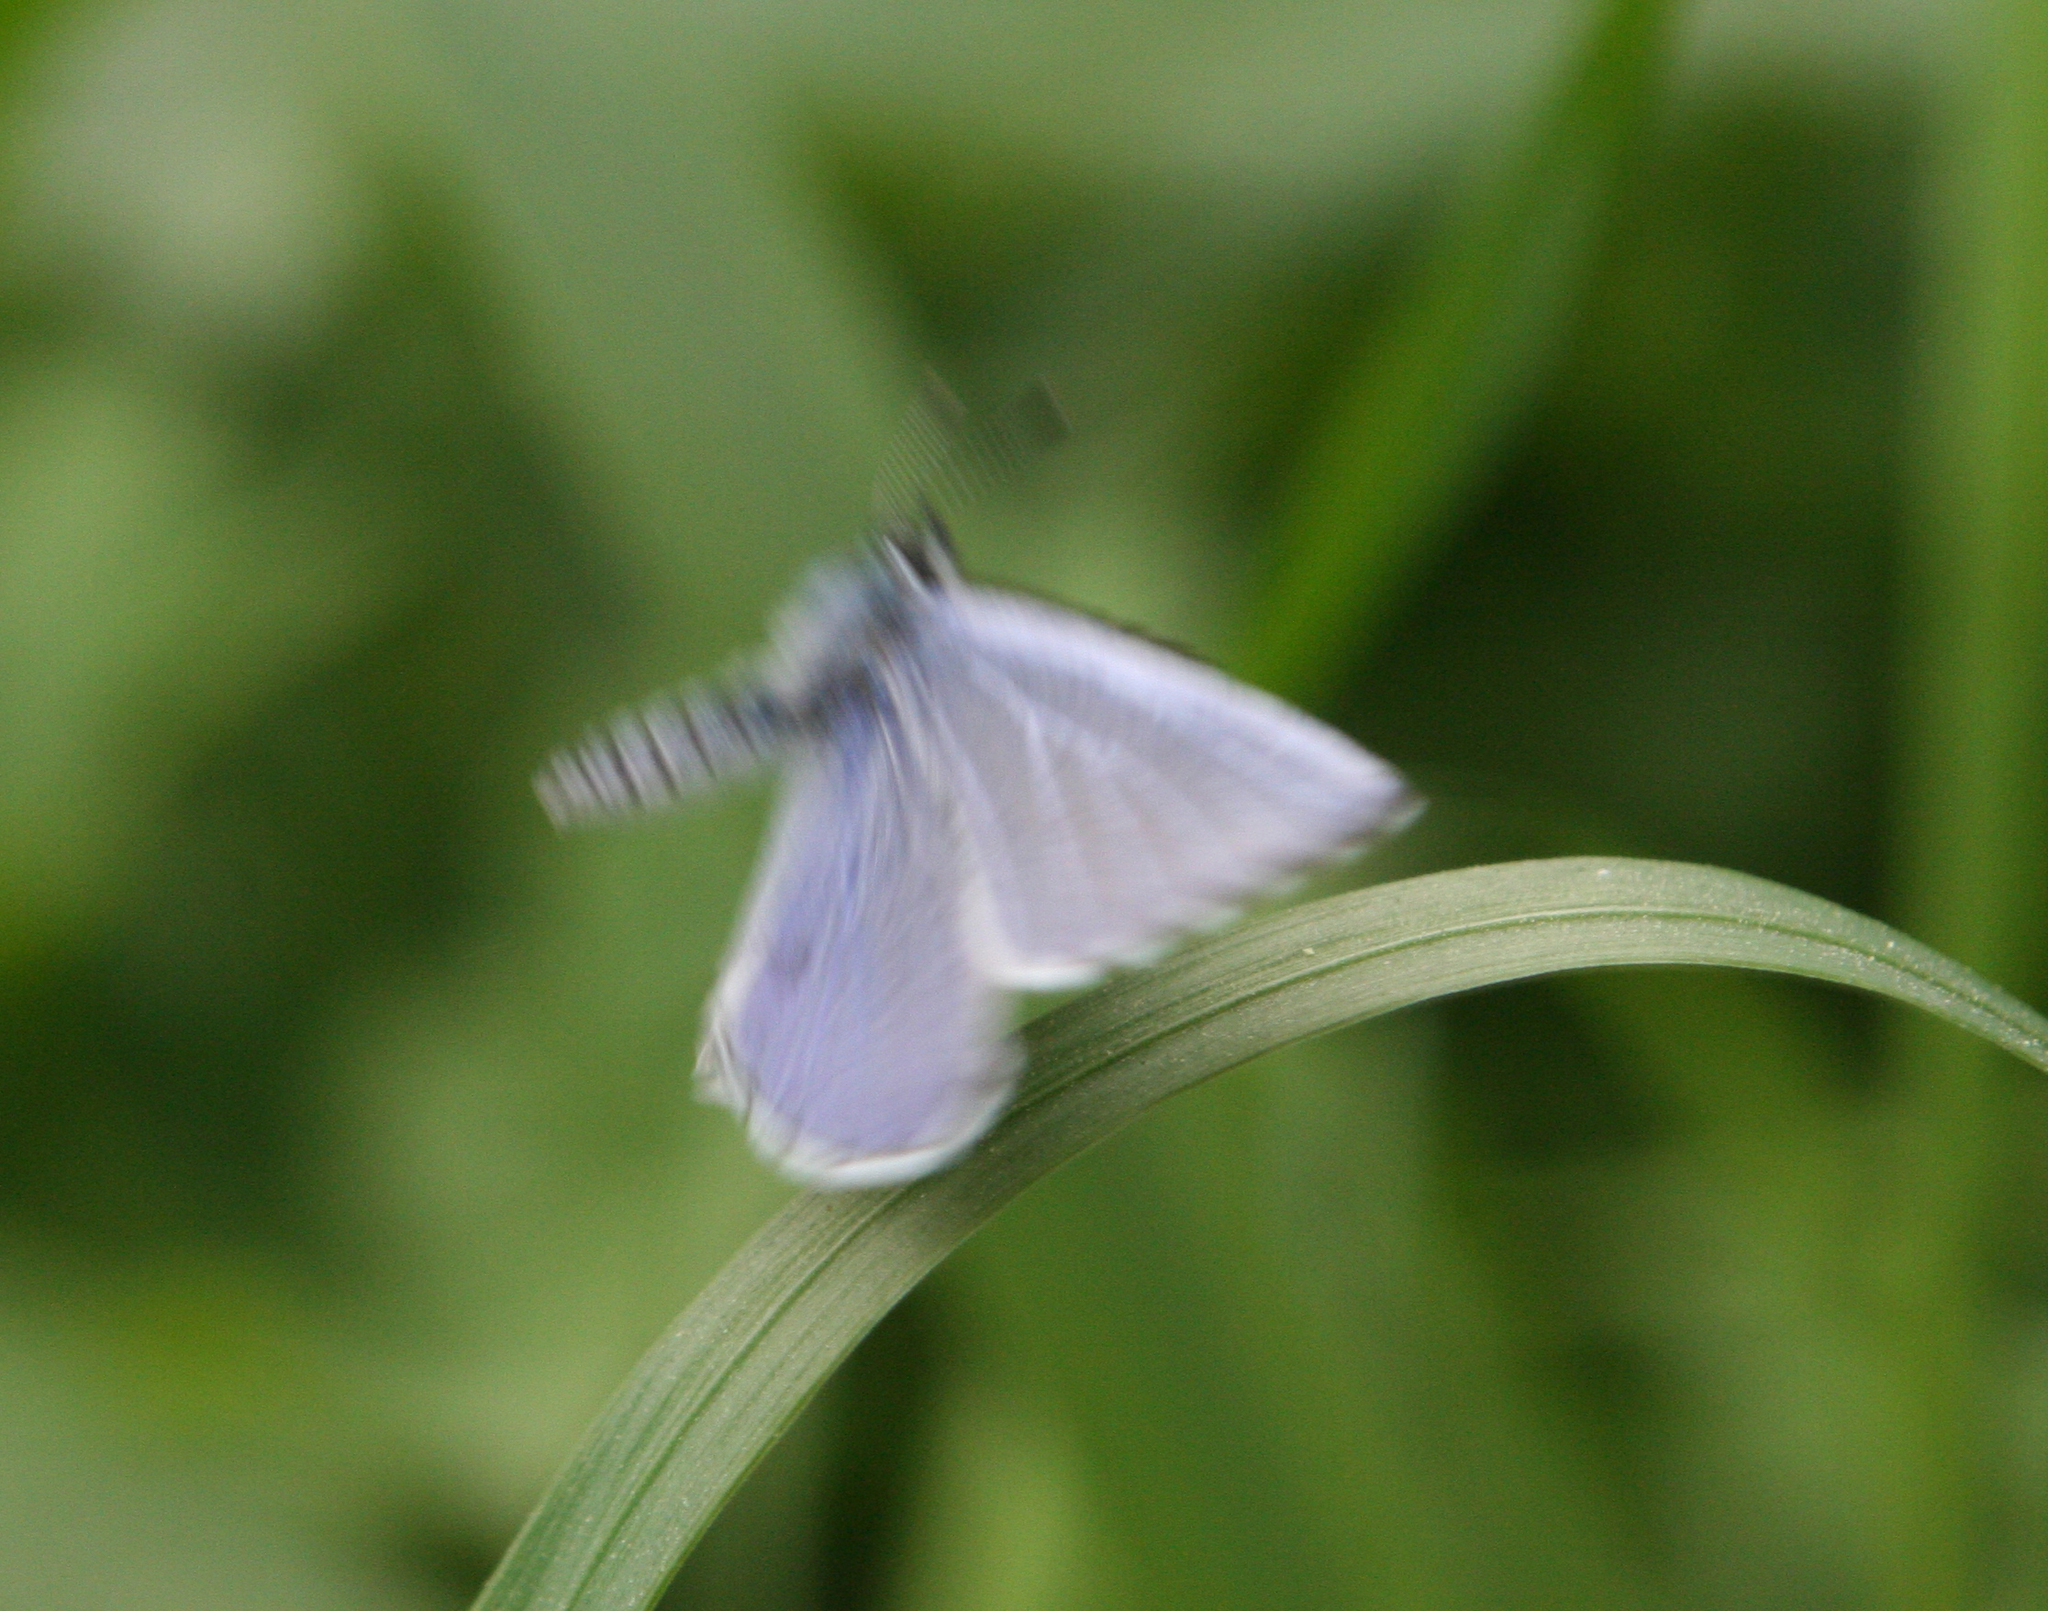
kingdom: Animalia
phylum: Arthropoda
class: Insecta
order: Lepidoptera
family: Lycaenidae
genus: Celastrina
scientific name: Celastrina argiolus
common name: Holly blue
